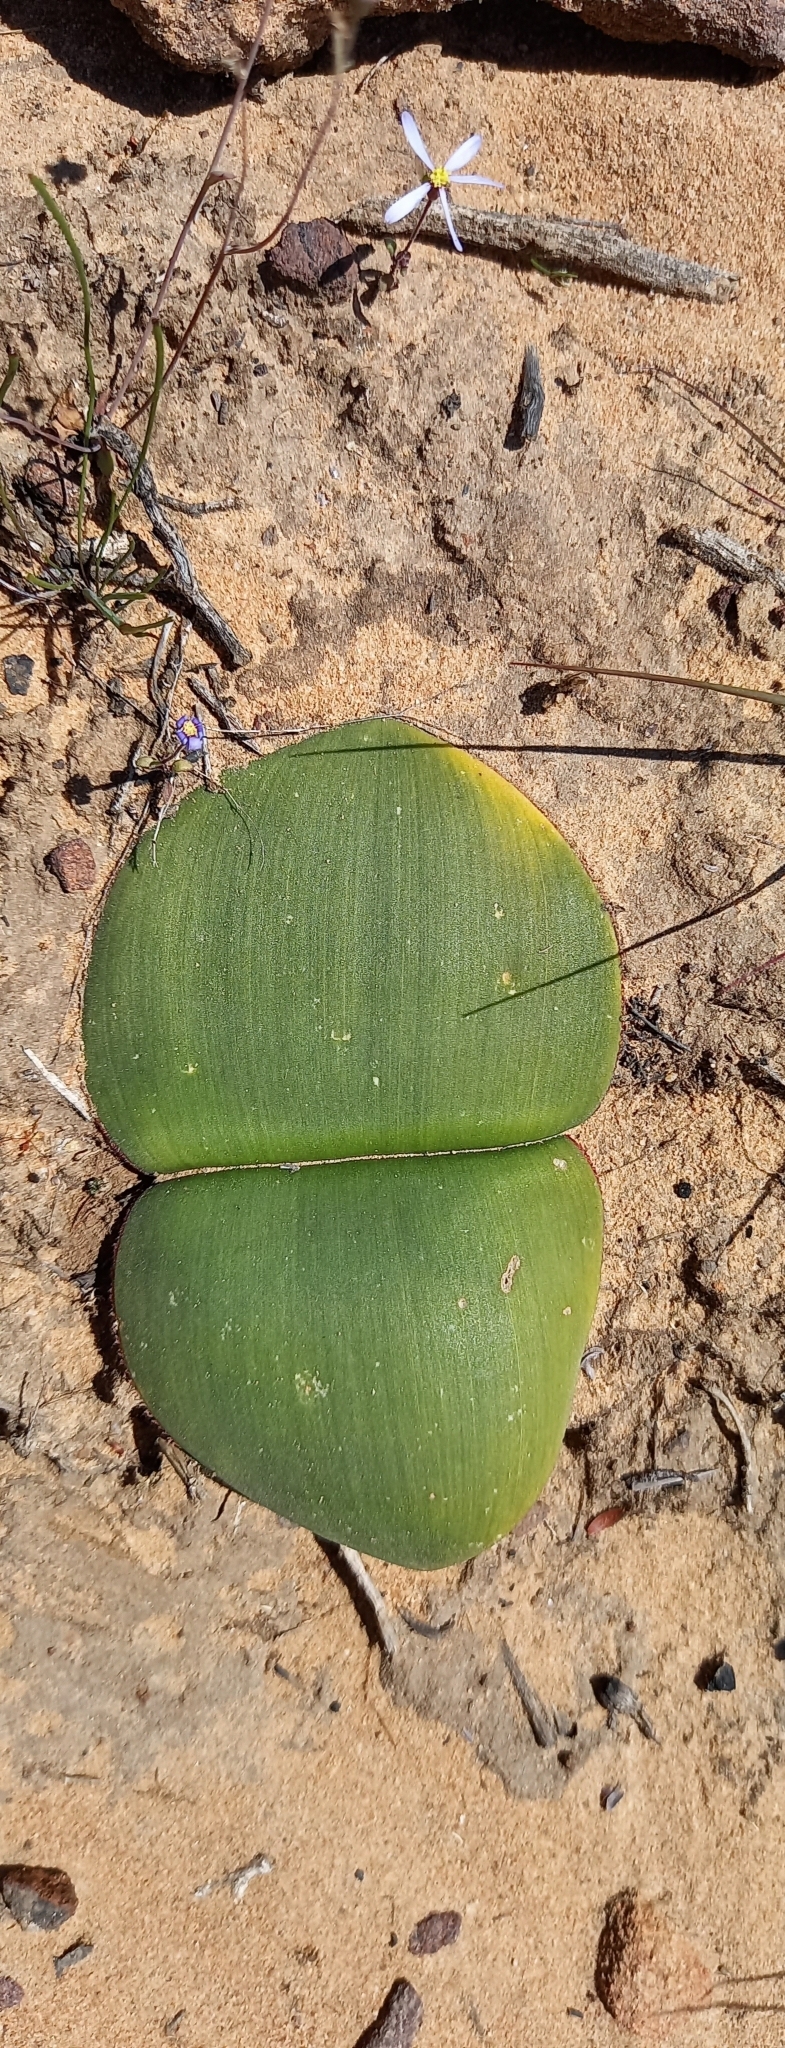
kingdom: Plantae
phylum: Tracheophyta
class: Liliopsida
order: Asparagales
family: Amaryllidaceae
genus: Haemanthus
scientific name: Haemanthus sanguineus
